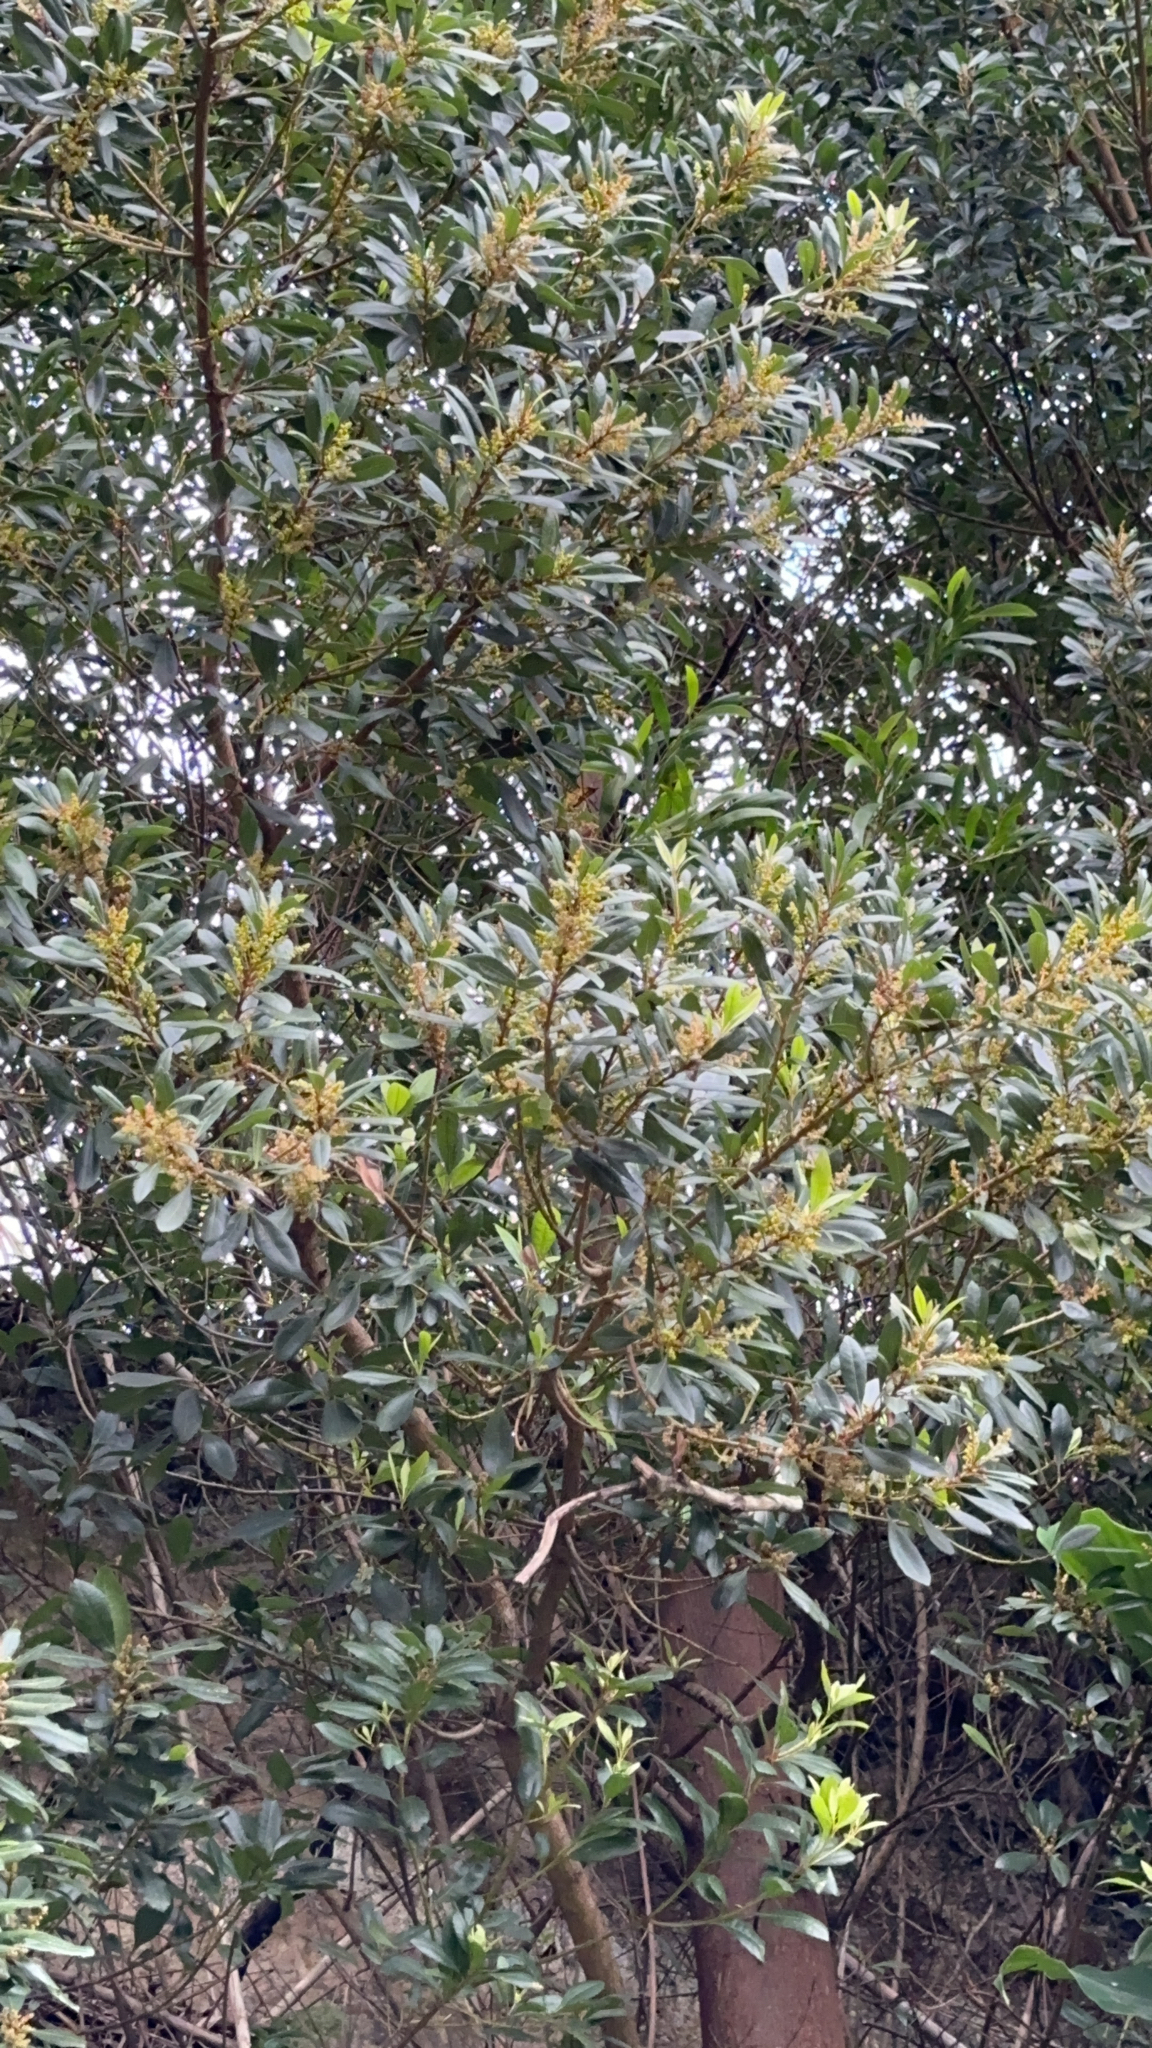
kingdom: Plantae
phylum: Tracheophyta
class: Magnoliopsida
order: Fagales
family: Myricaceae
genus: Morella
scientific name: Morella faya
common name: Firetree
